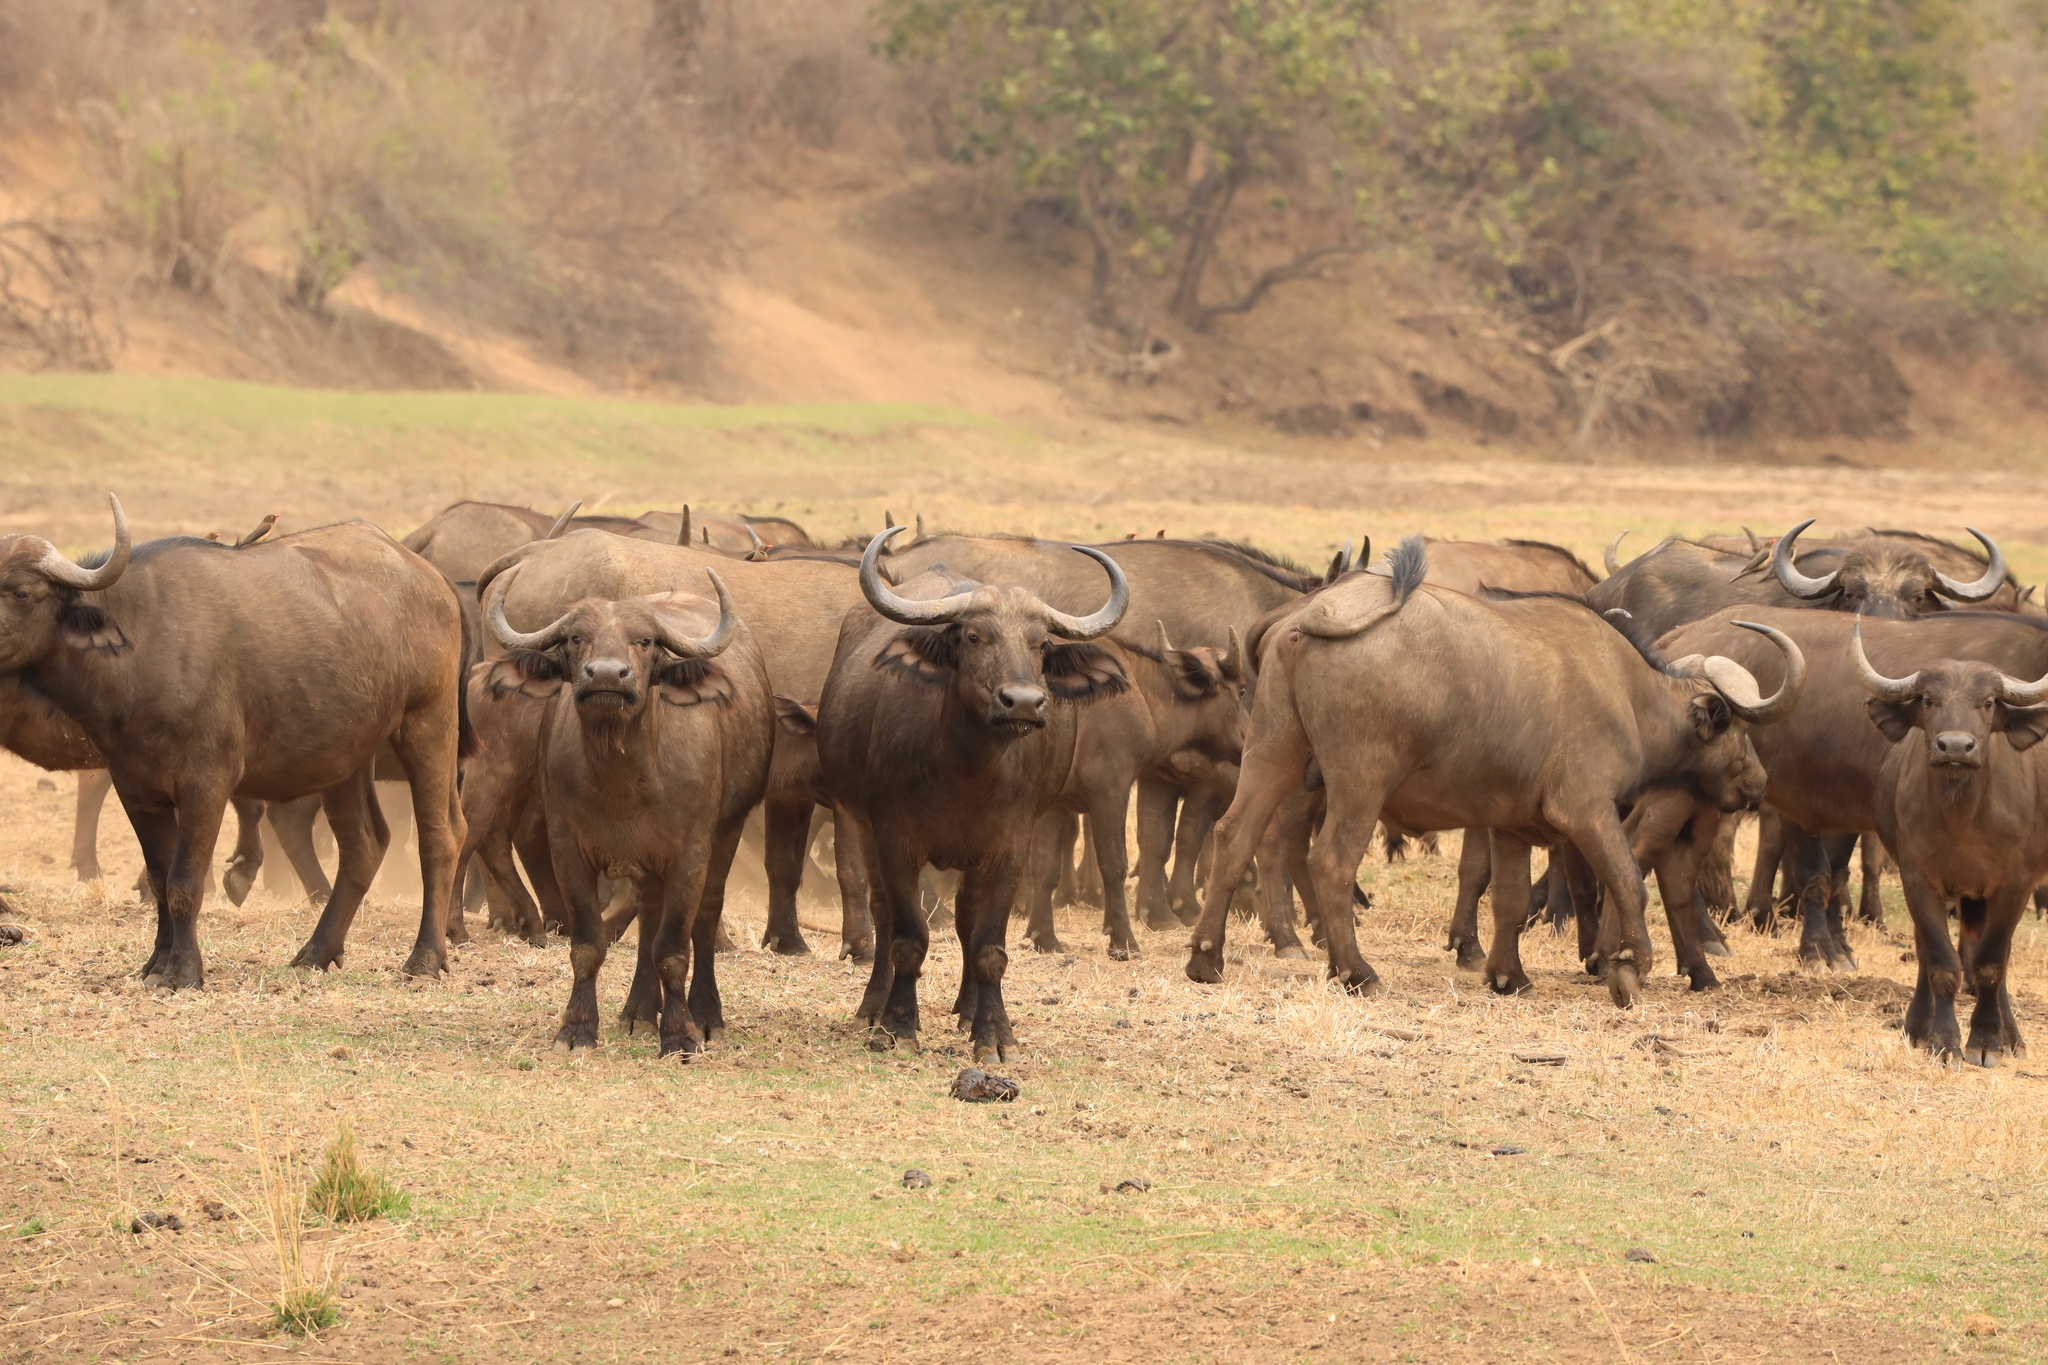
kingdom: Animalia
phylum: Chordata
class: Mammalia
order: Artiodactyla
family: Bovidae
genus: Syncerus
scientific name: Syncerus caffer
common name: African buffalo
